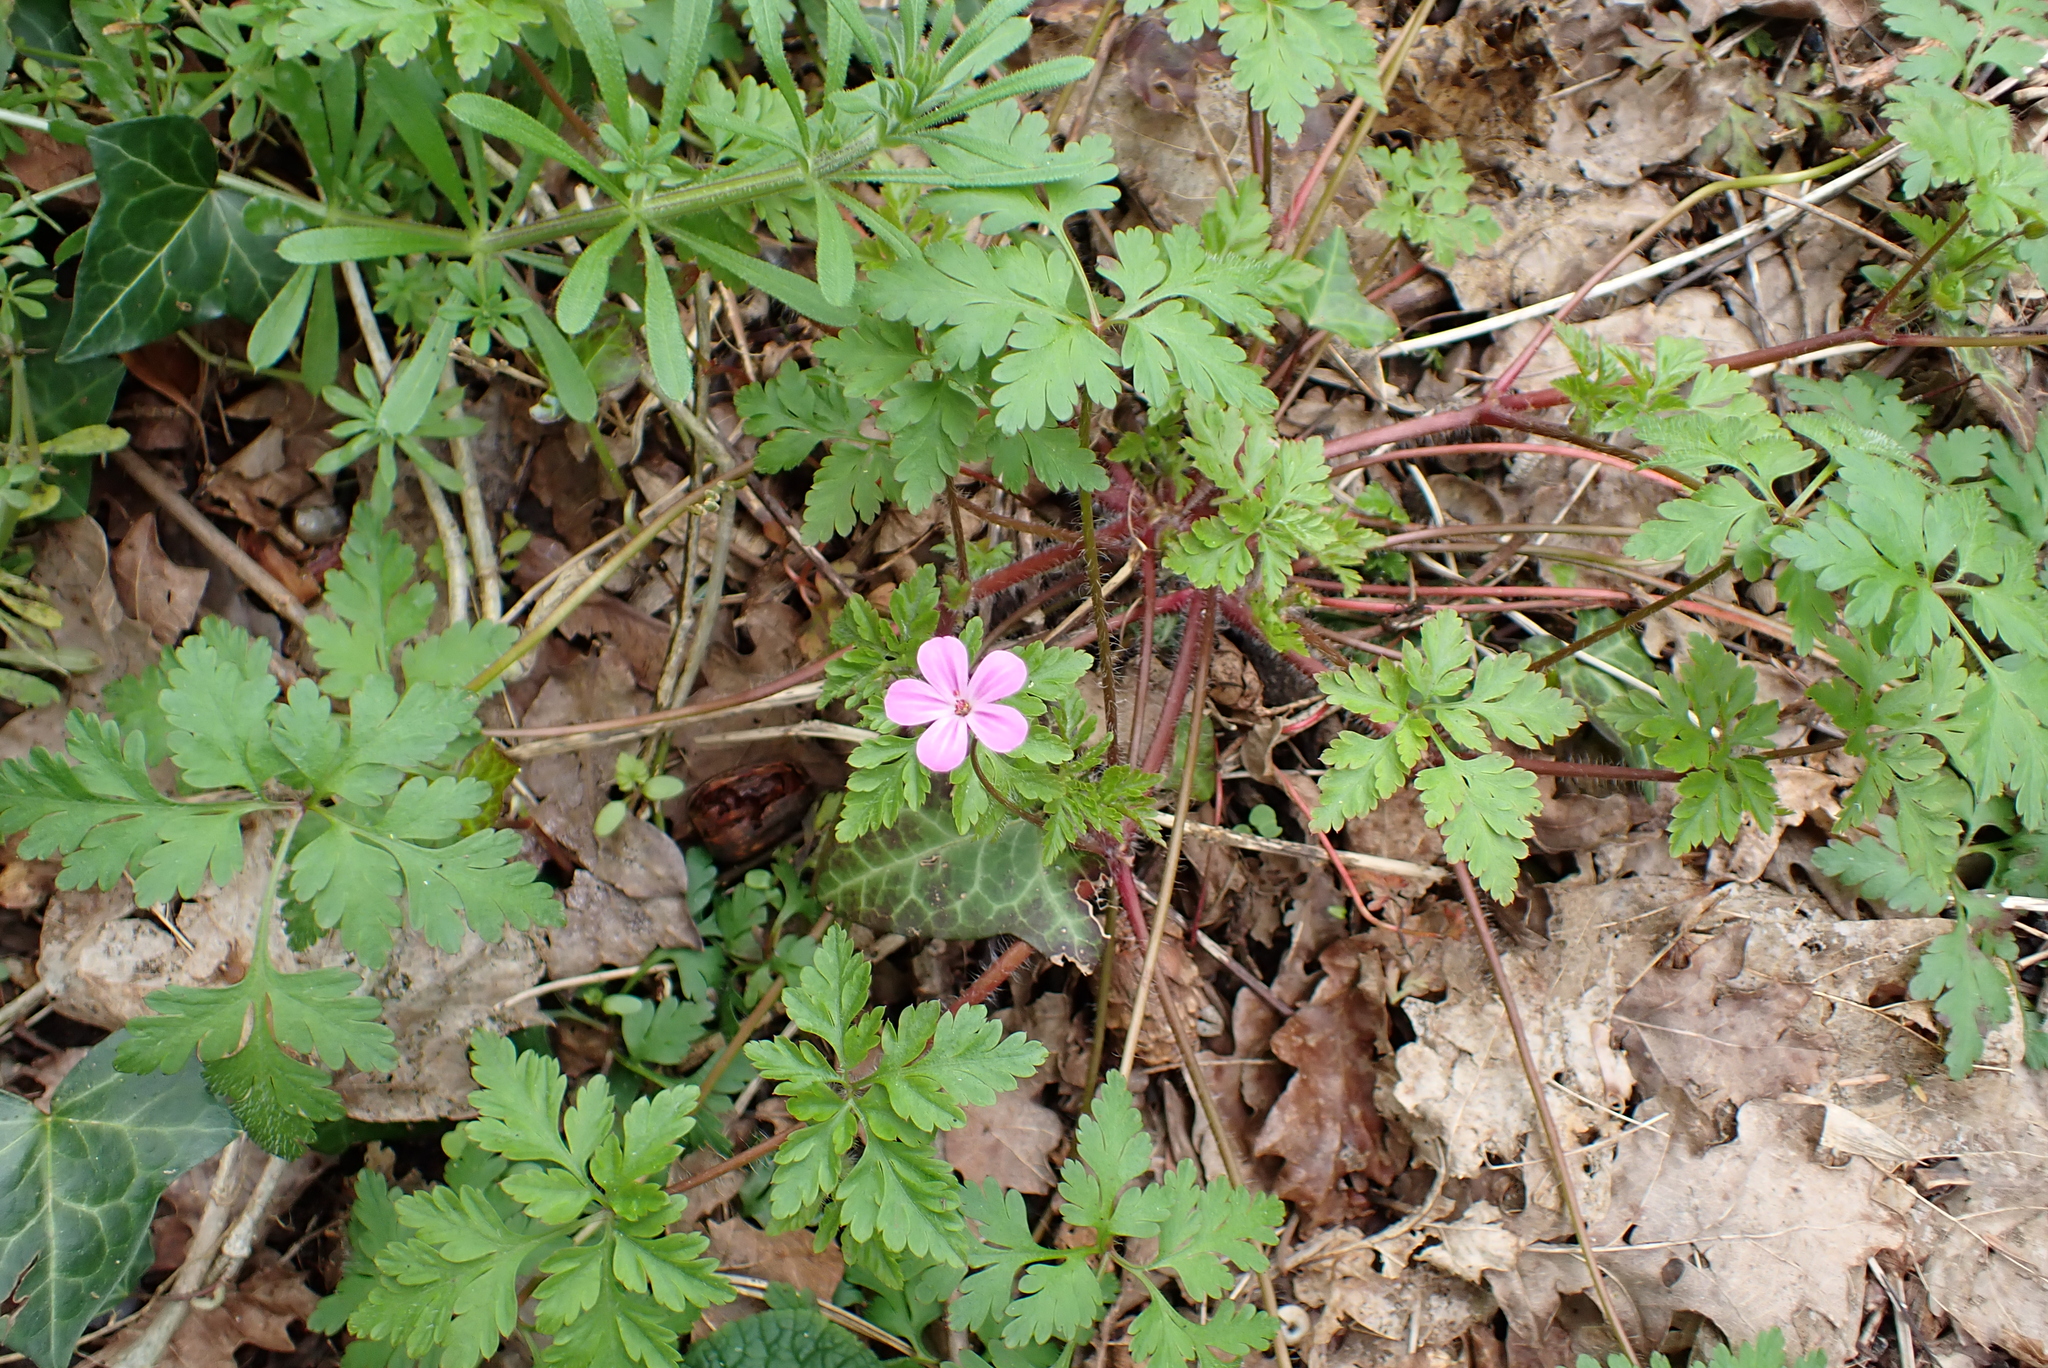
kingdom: Plantae
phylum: Tracheophyta
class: Magnoliopsida
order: Geraniales
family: Geraniaceae
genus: Geranium
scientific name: Geranium robertianum
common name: Herb-robert
